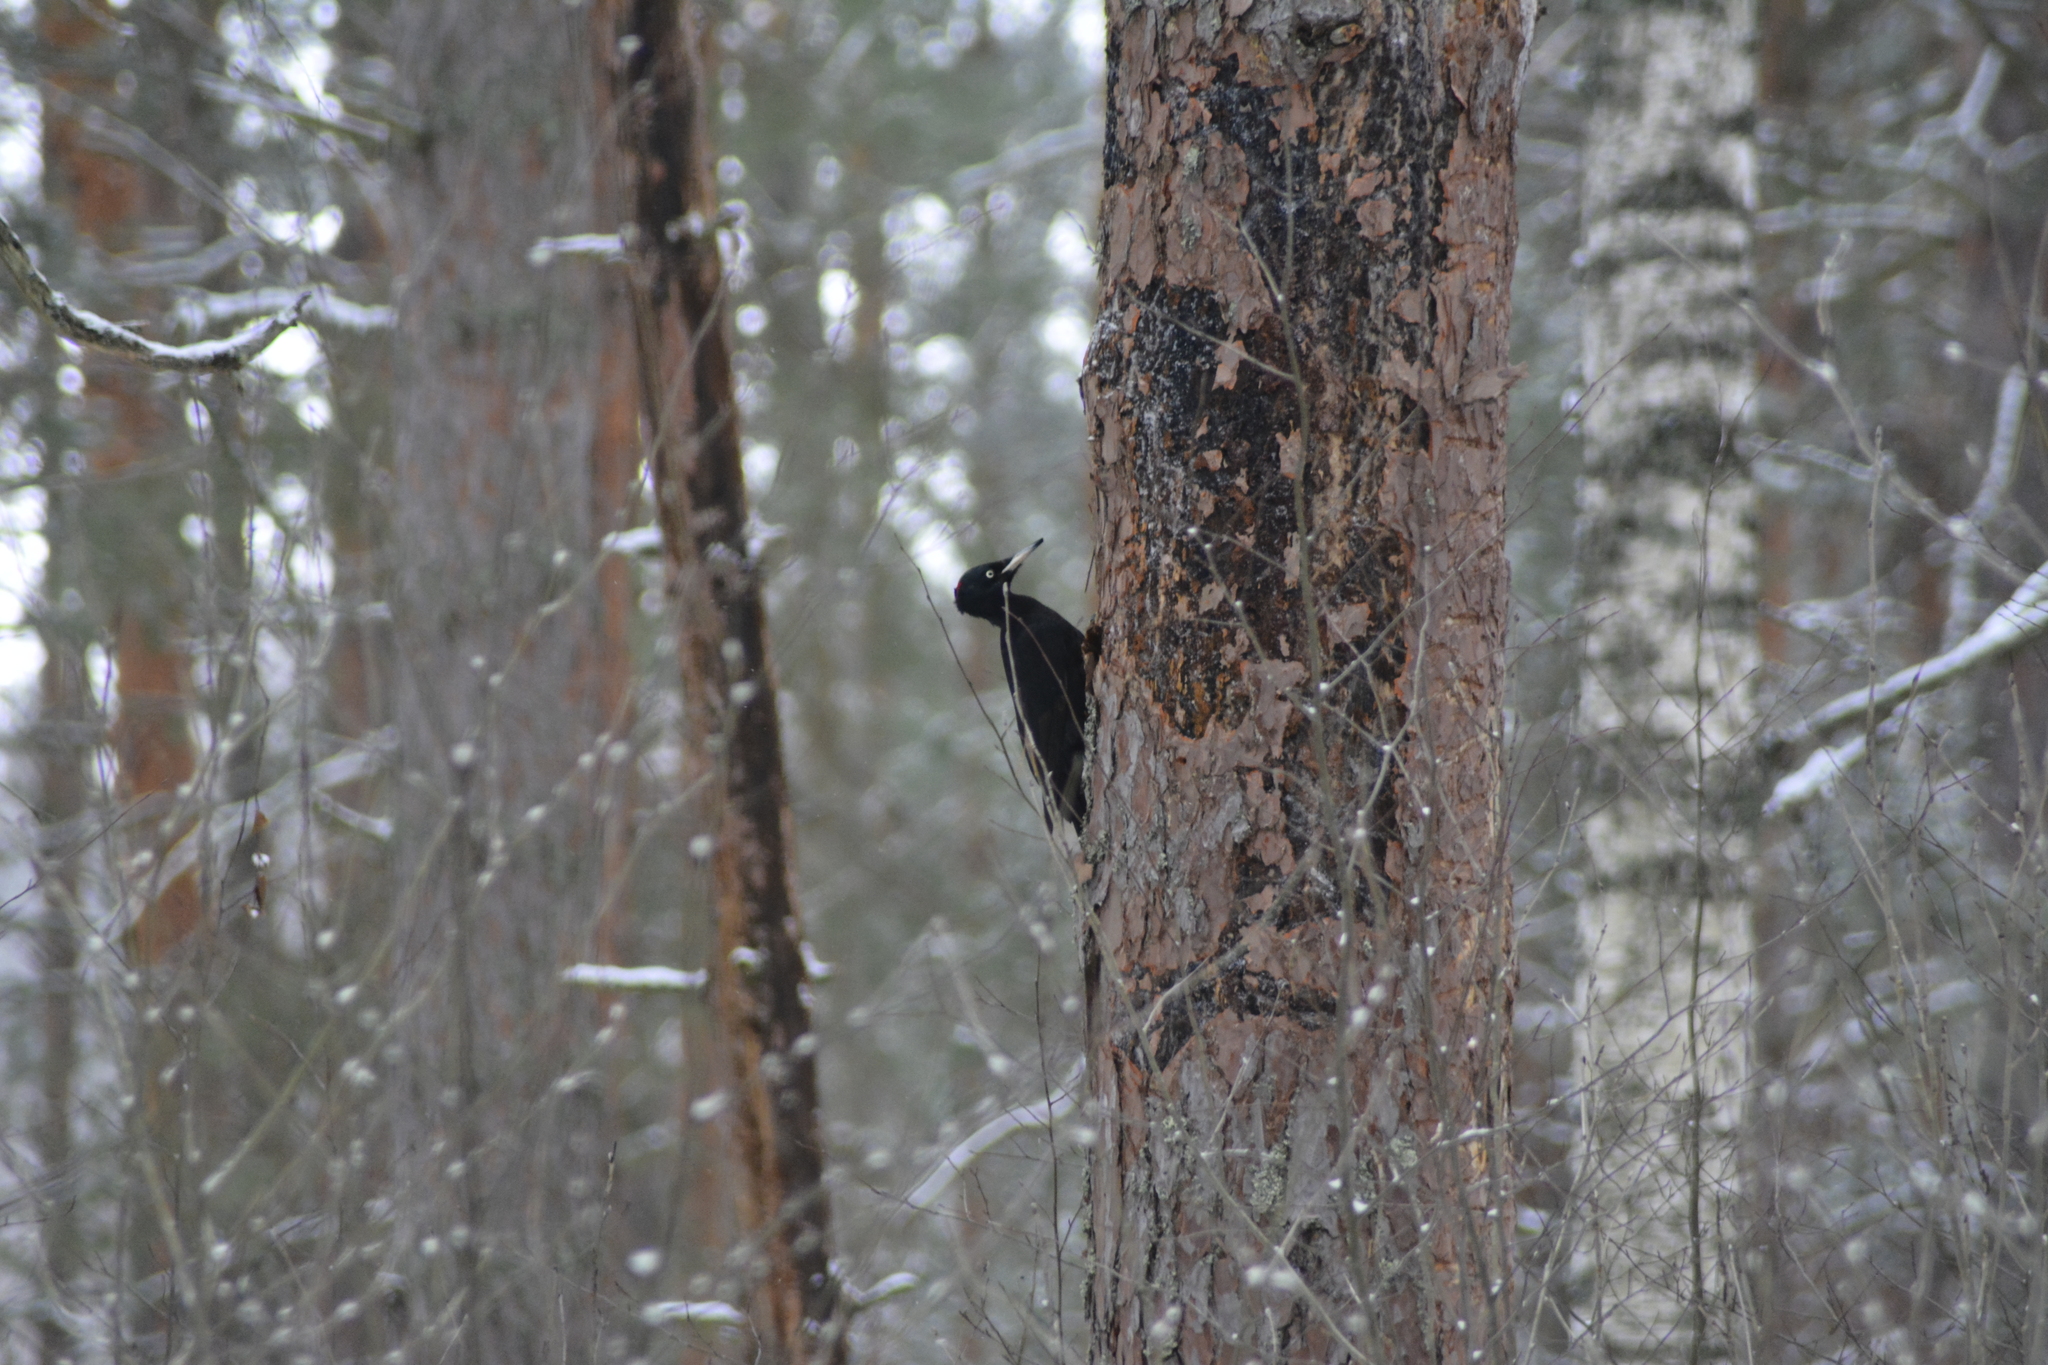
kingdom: Animalia
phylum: Chordata
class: Aves
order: Piciformes
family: Picidae
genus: Dryocopus
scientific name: Dryocopus martius
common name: Black woodpecker
